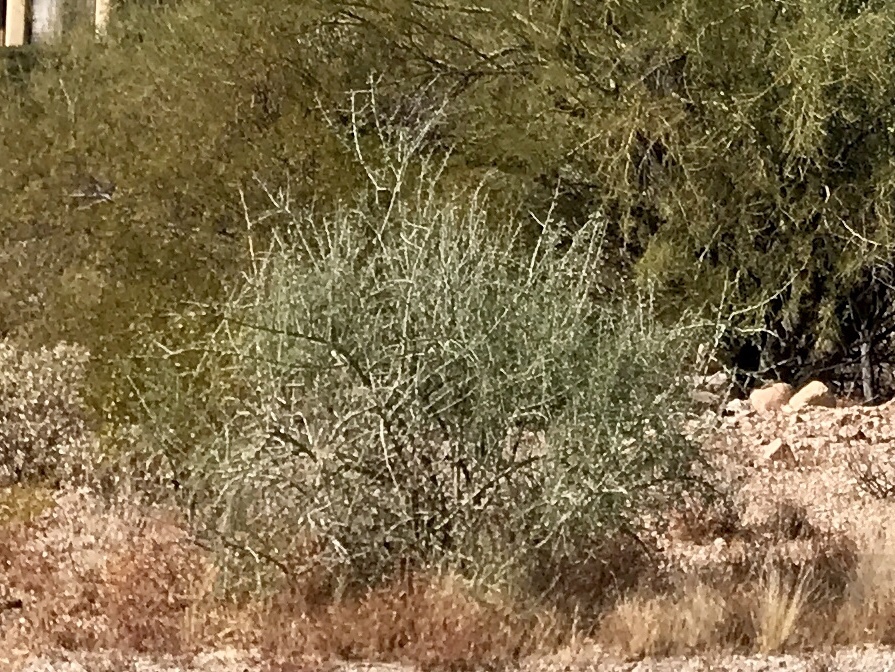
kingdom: Plantae
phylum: Tracheophyta
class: Magnoliopsida
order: Fabales
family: Fabaceae
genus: Parkinsonia
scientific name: Parkinsonia florida
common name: Blue paloverde
